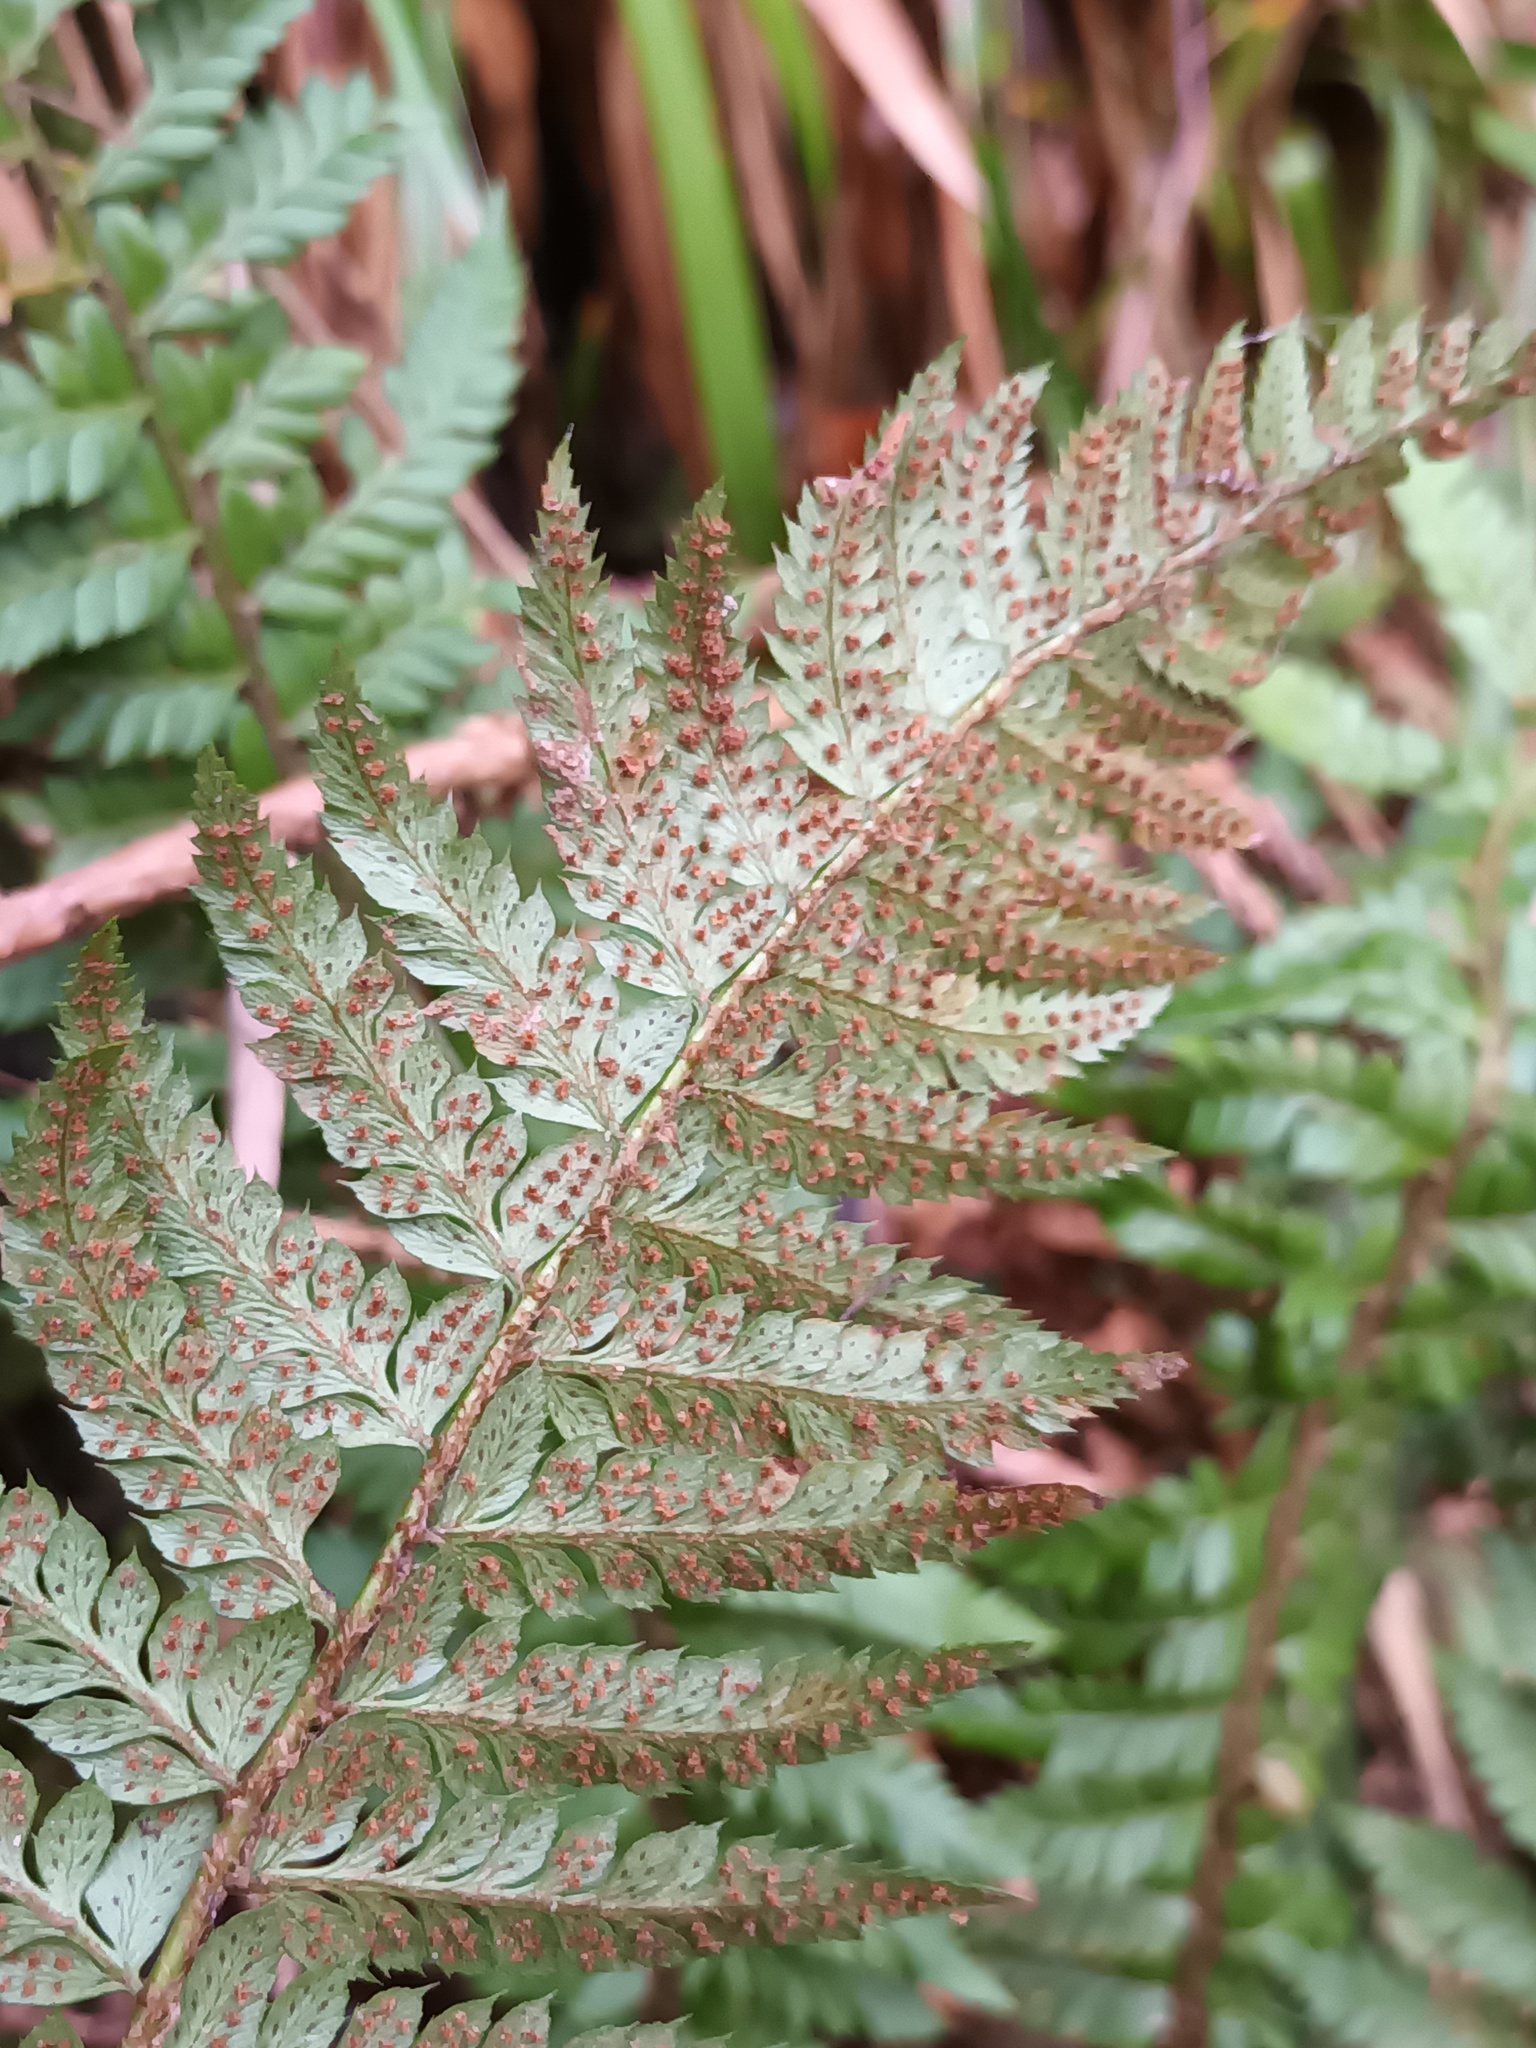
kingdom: Plantae
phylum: Tracheophyta
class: Polypodiopsida
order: Polypodiales
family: Dryopteridaceae
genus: Polystichum
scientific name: Polystichum aculeatum
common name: Hard shield-fern
